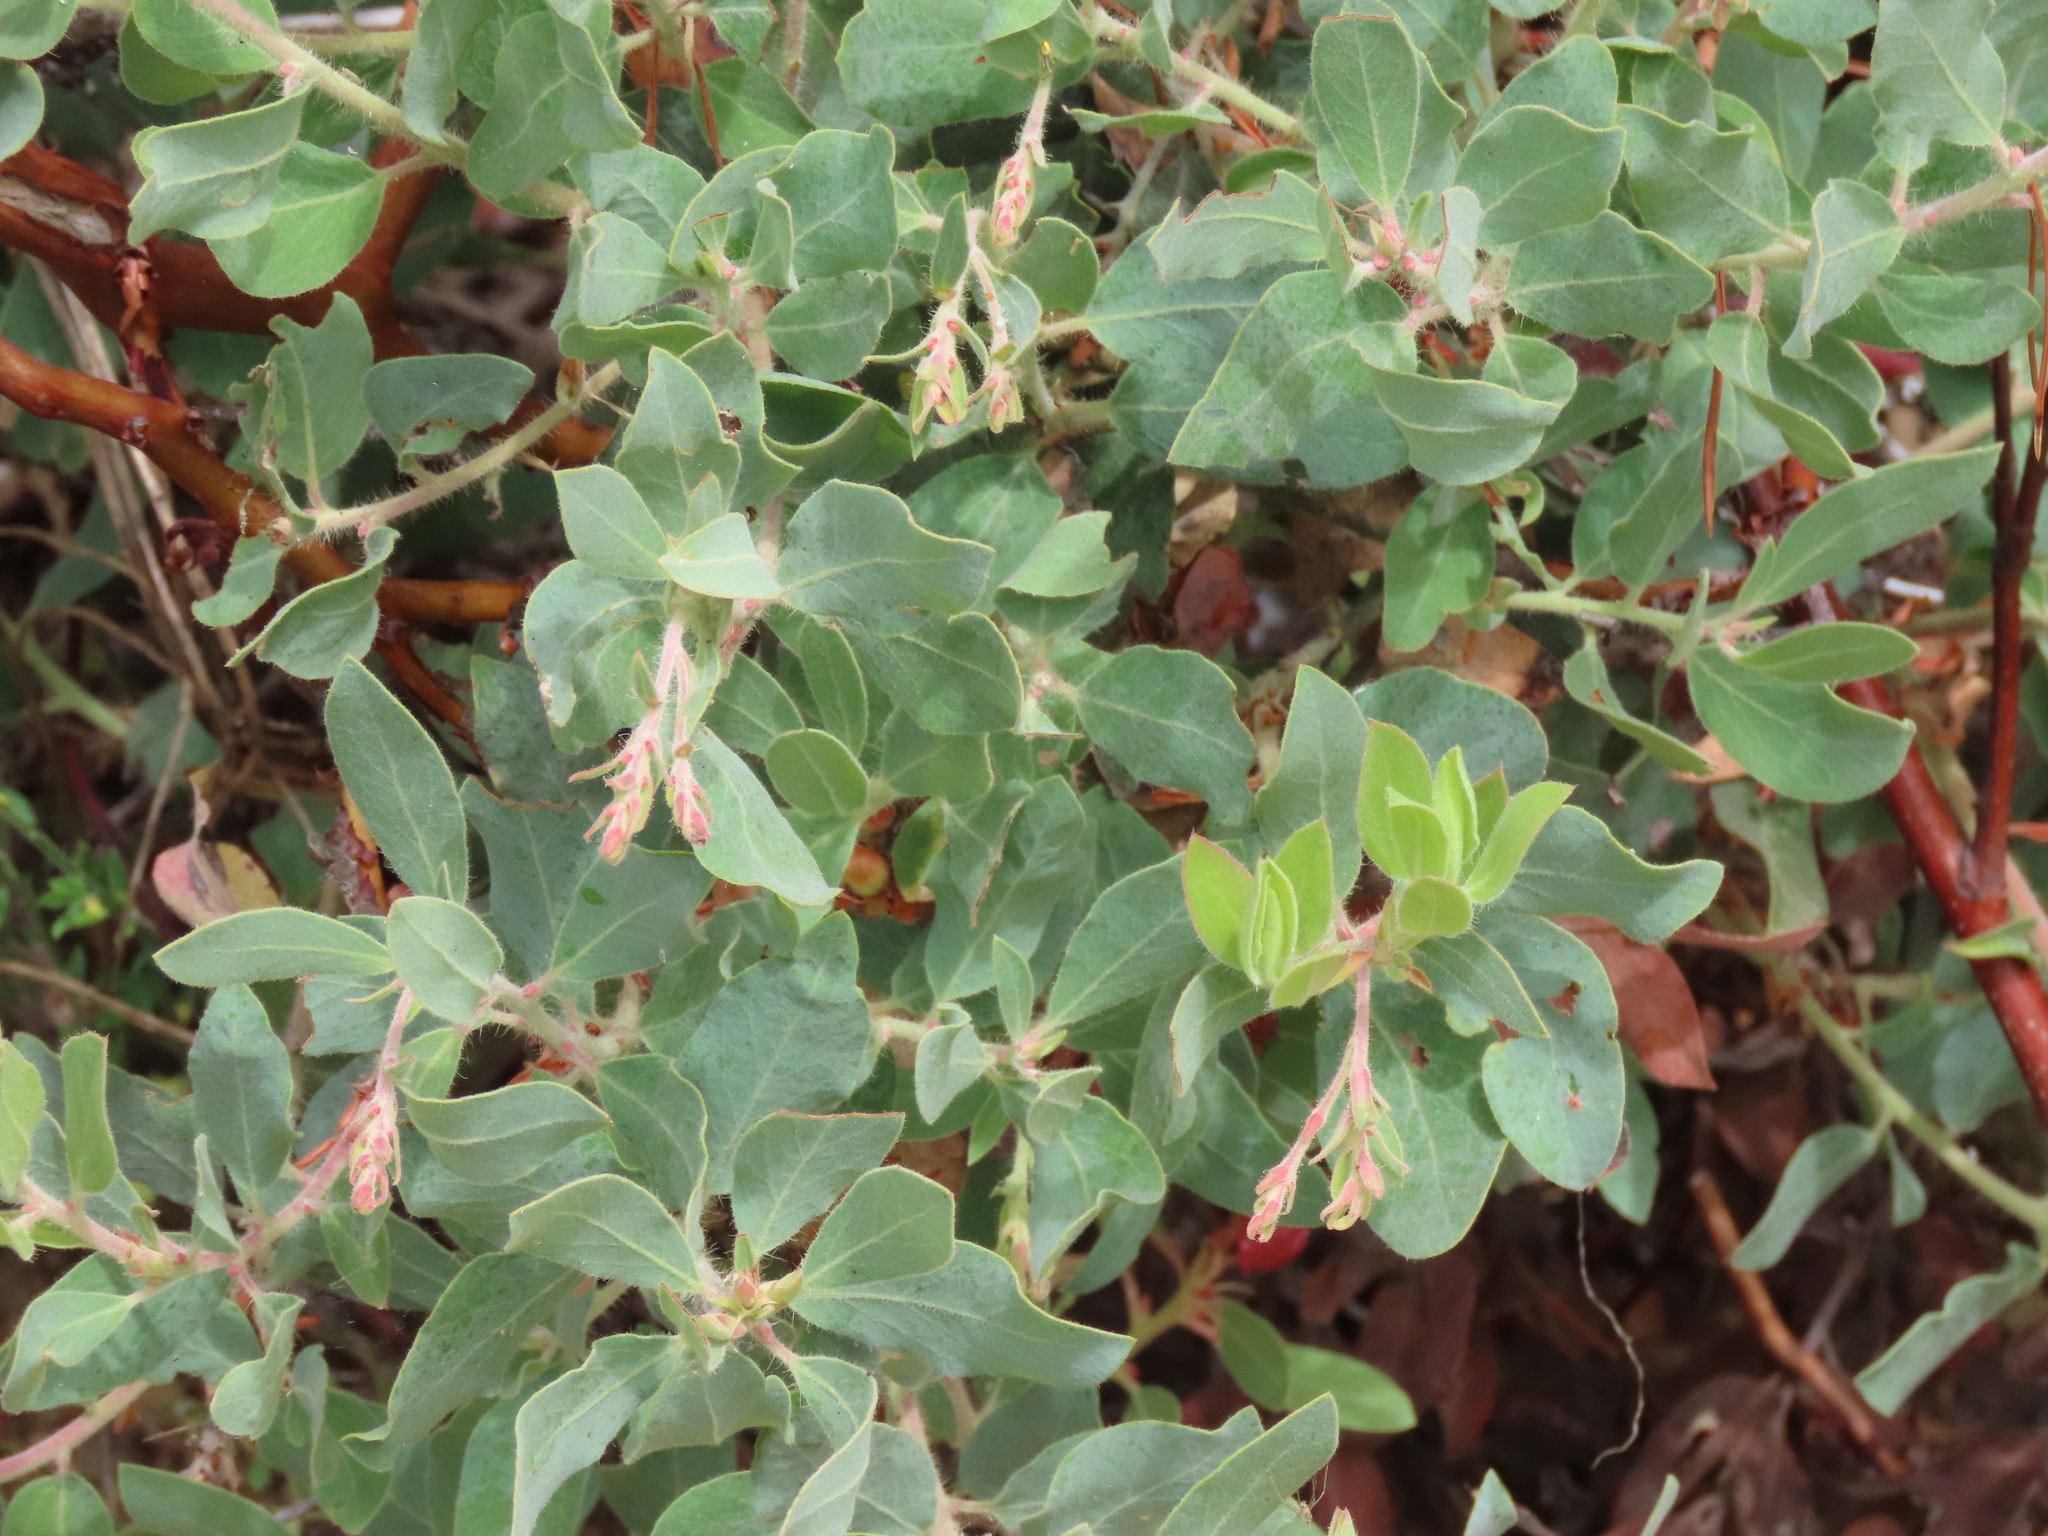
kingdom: Plantae
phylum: Tracheophyta
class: Magnoliopsida
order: Ericales
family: Ericaceae
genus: Arctostaphylos
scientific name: Arctostaphylos columbiana
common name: Bristly bearberry
